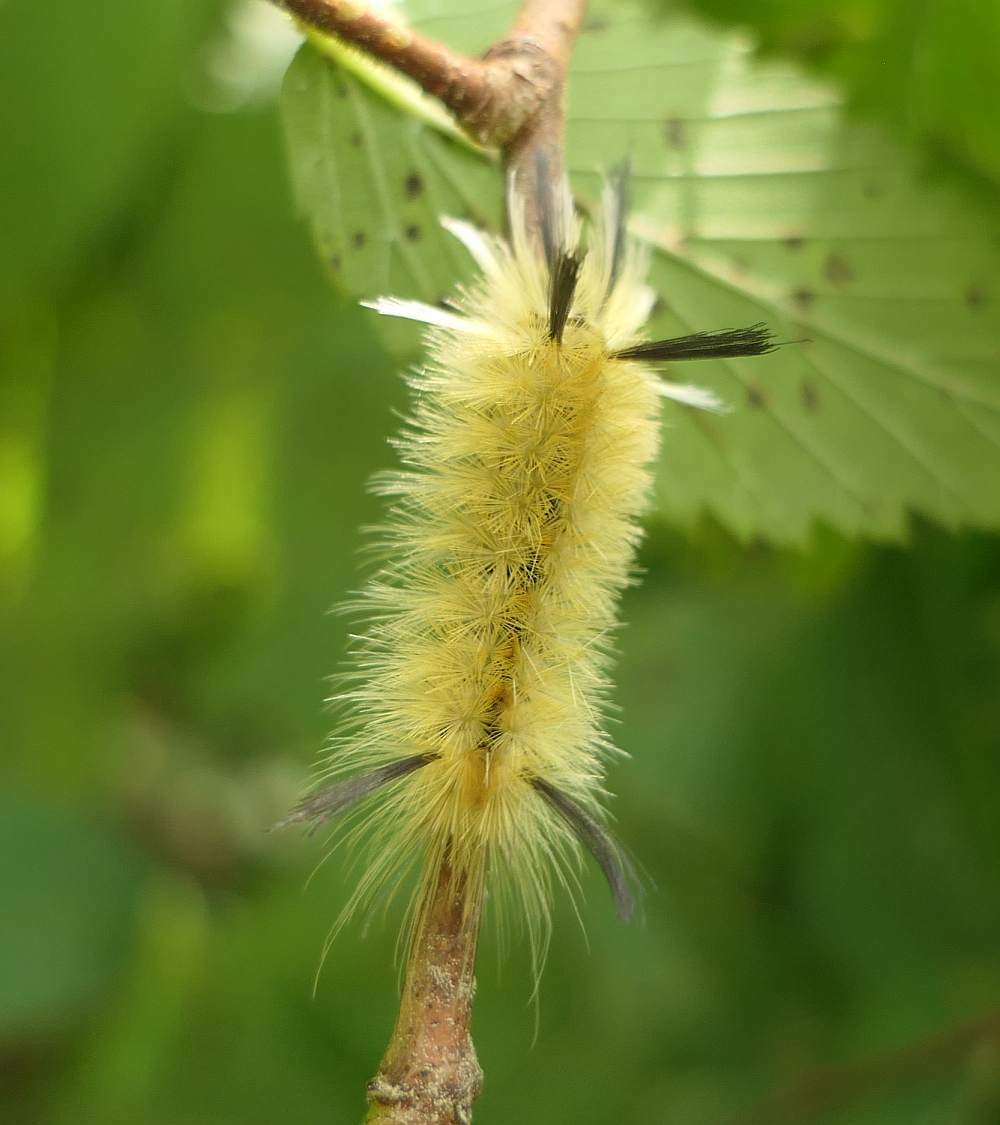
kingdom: Animalia
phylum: Arthropoda
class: Insecta
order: Lepidoptera
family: Erebidae
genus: Halysidota
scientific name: Halysidota tessellaris
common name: Banded tussock moth
